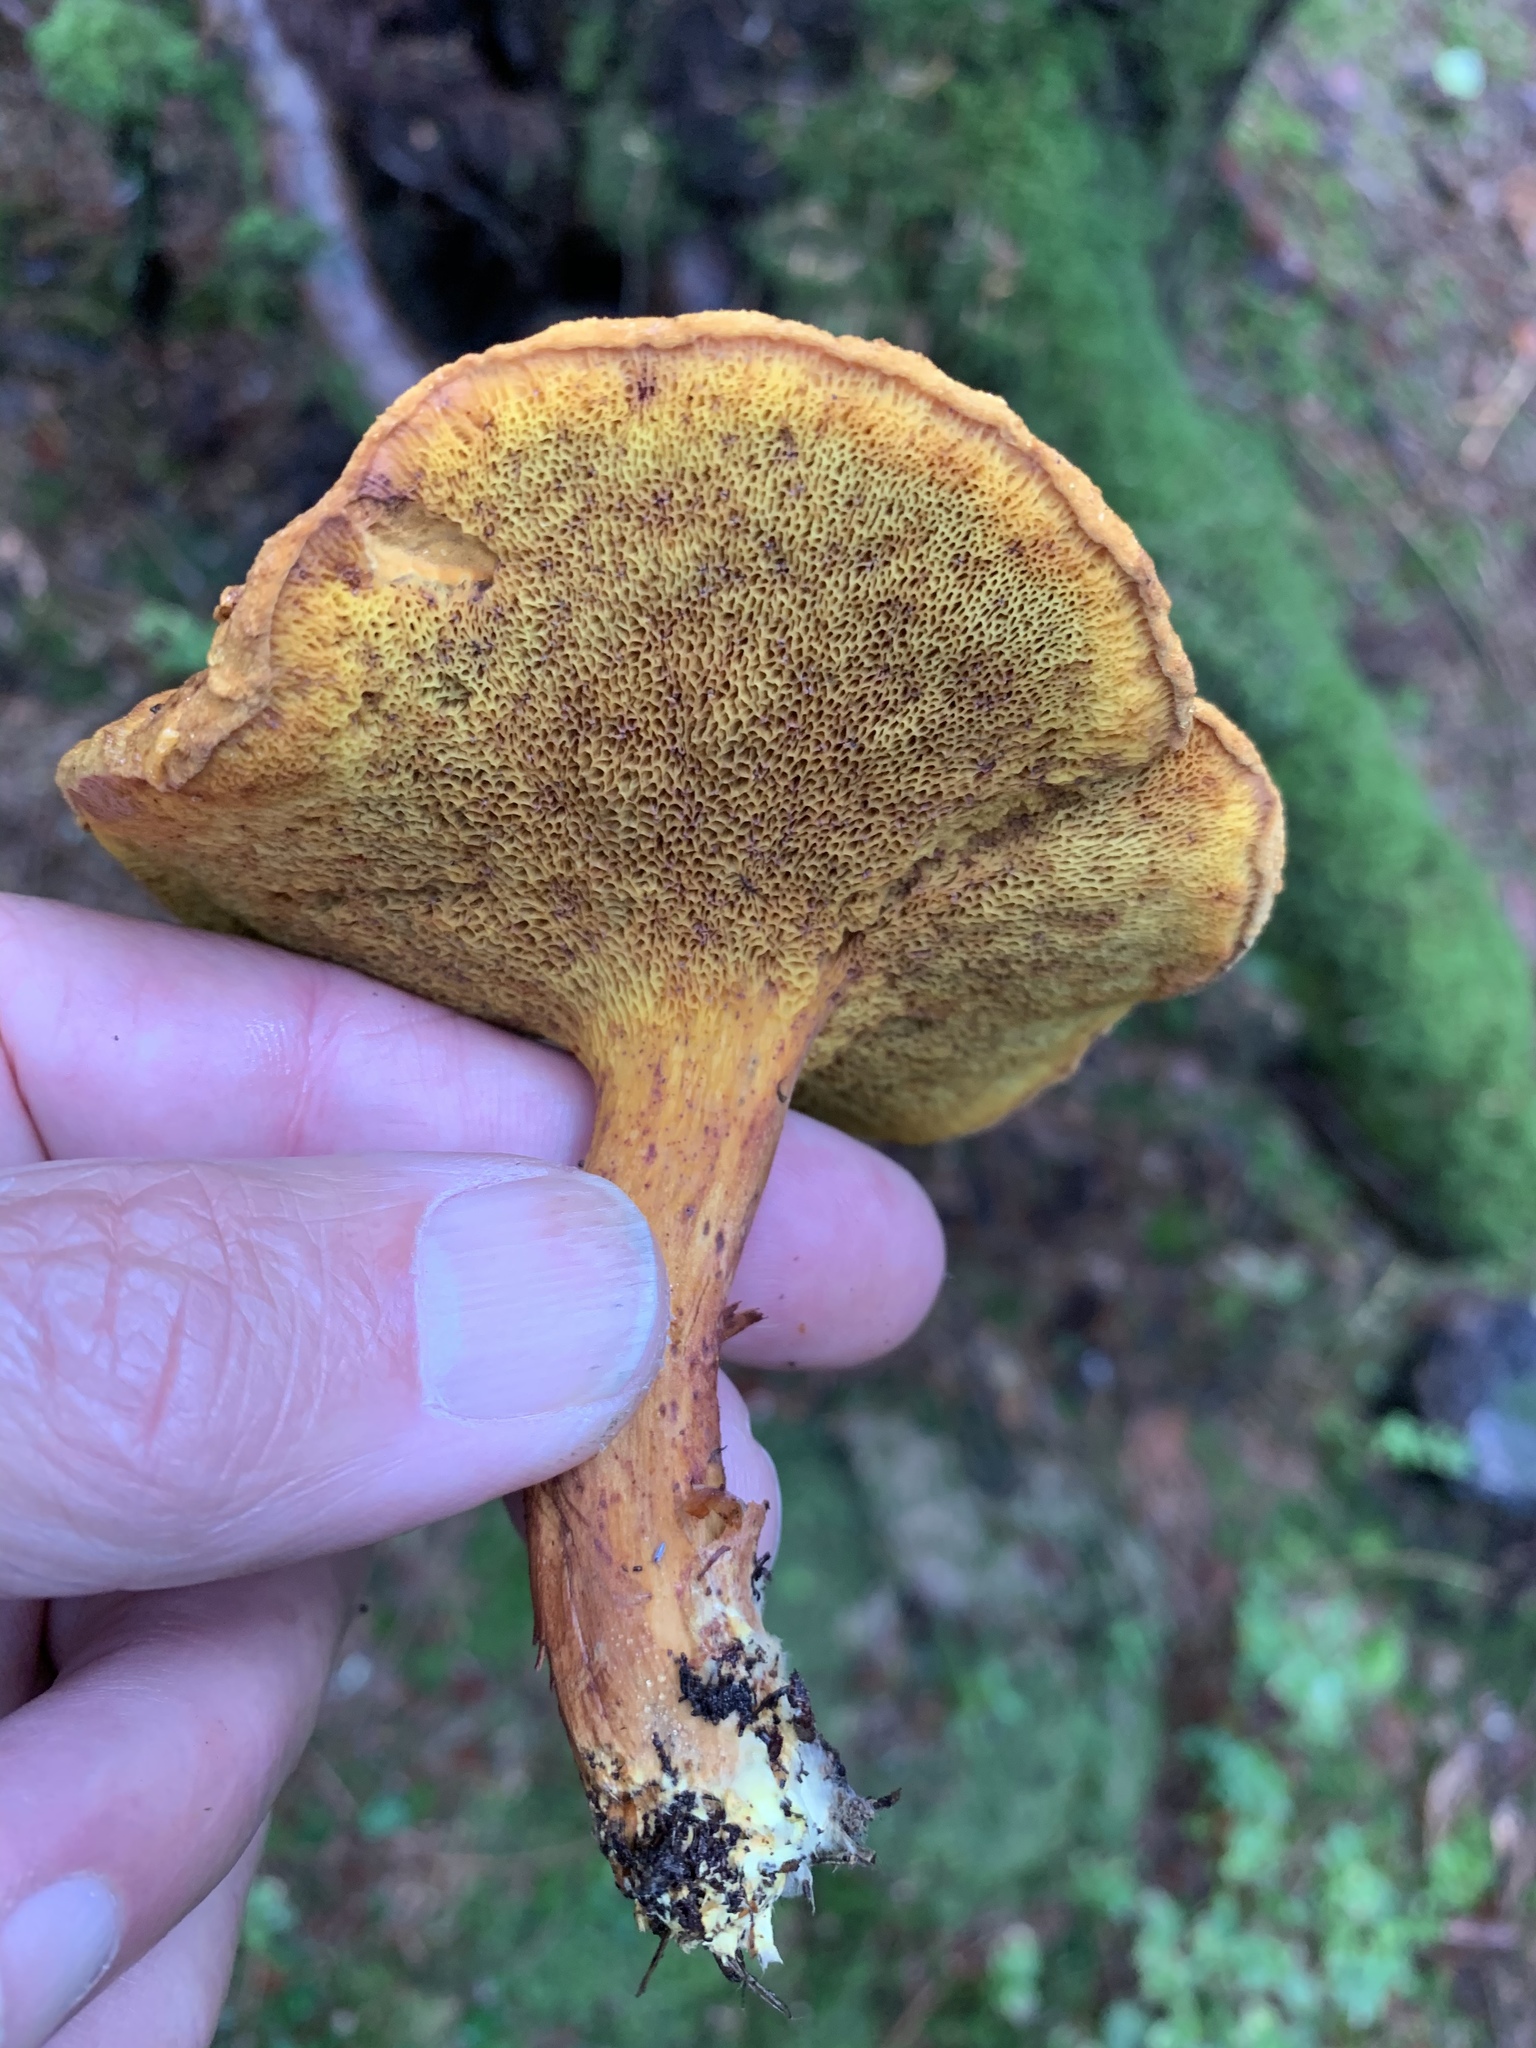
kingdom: Fungi
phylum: Basidiomycota
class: Agaricomycetes
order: Boletales
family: Boletaceae
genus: Chalciporus
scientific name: Chalciporus piperatus
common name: Peppery bolete
